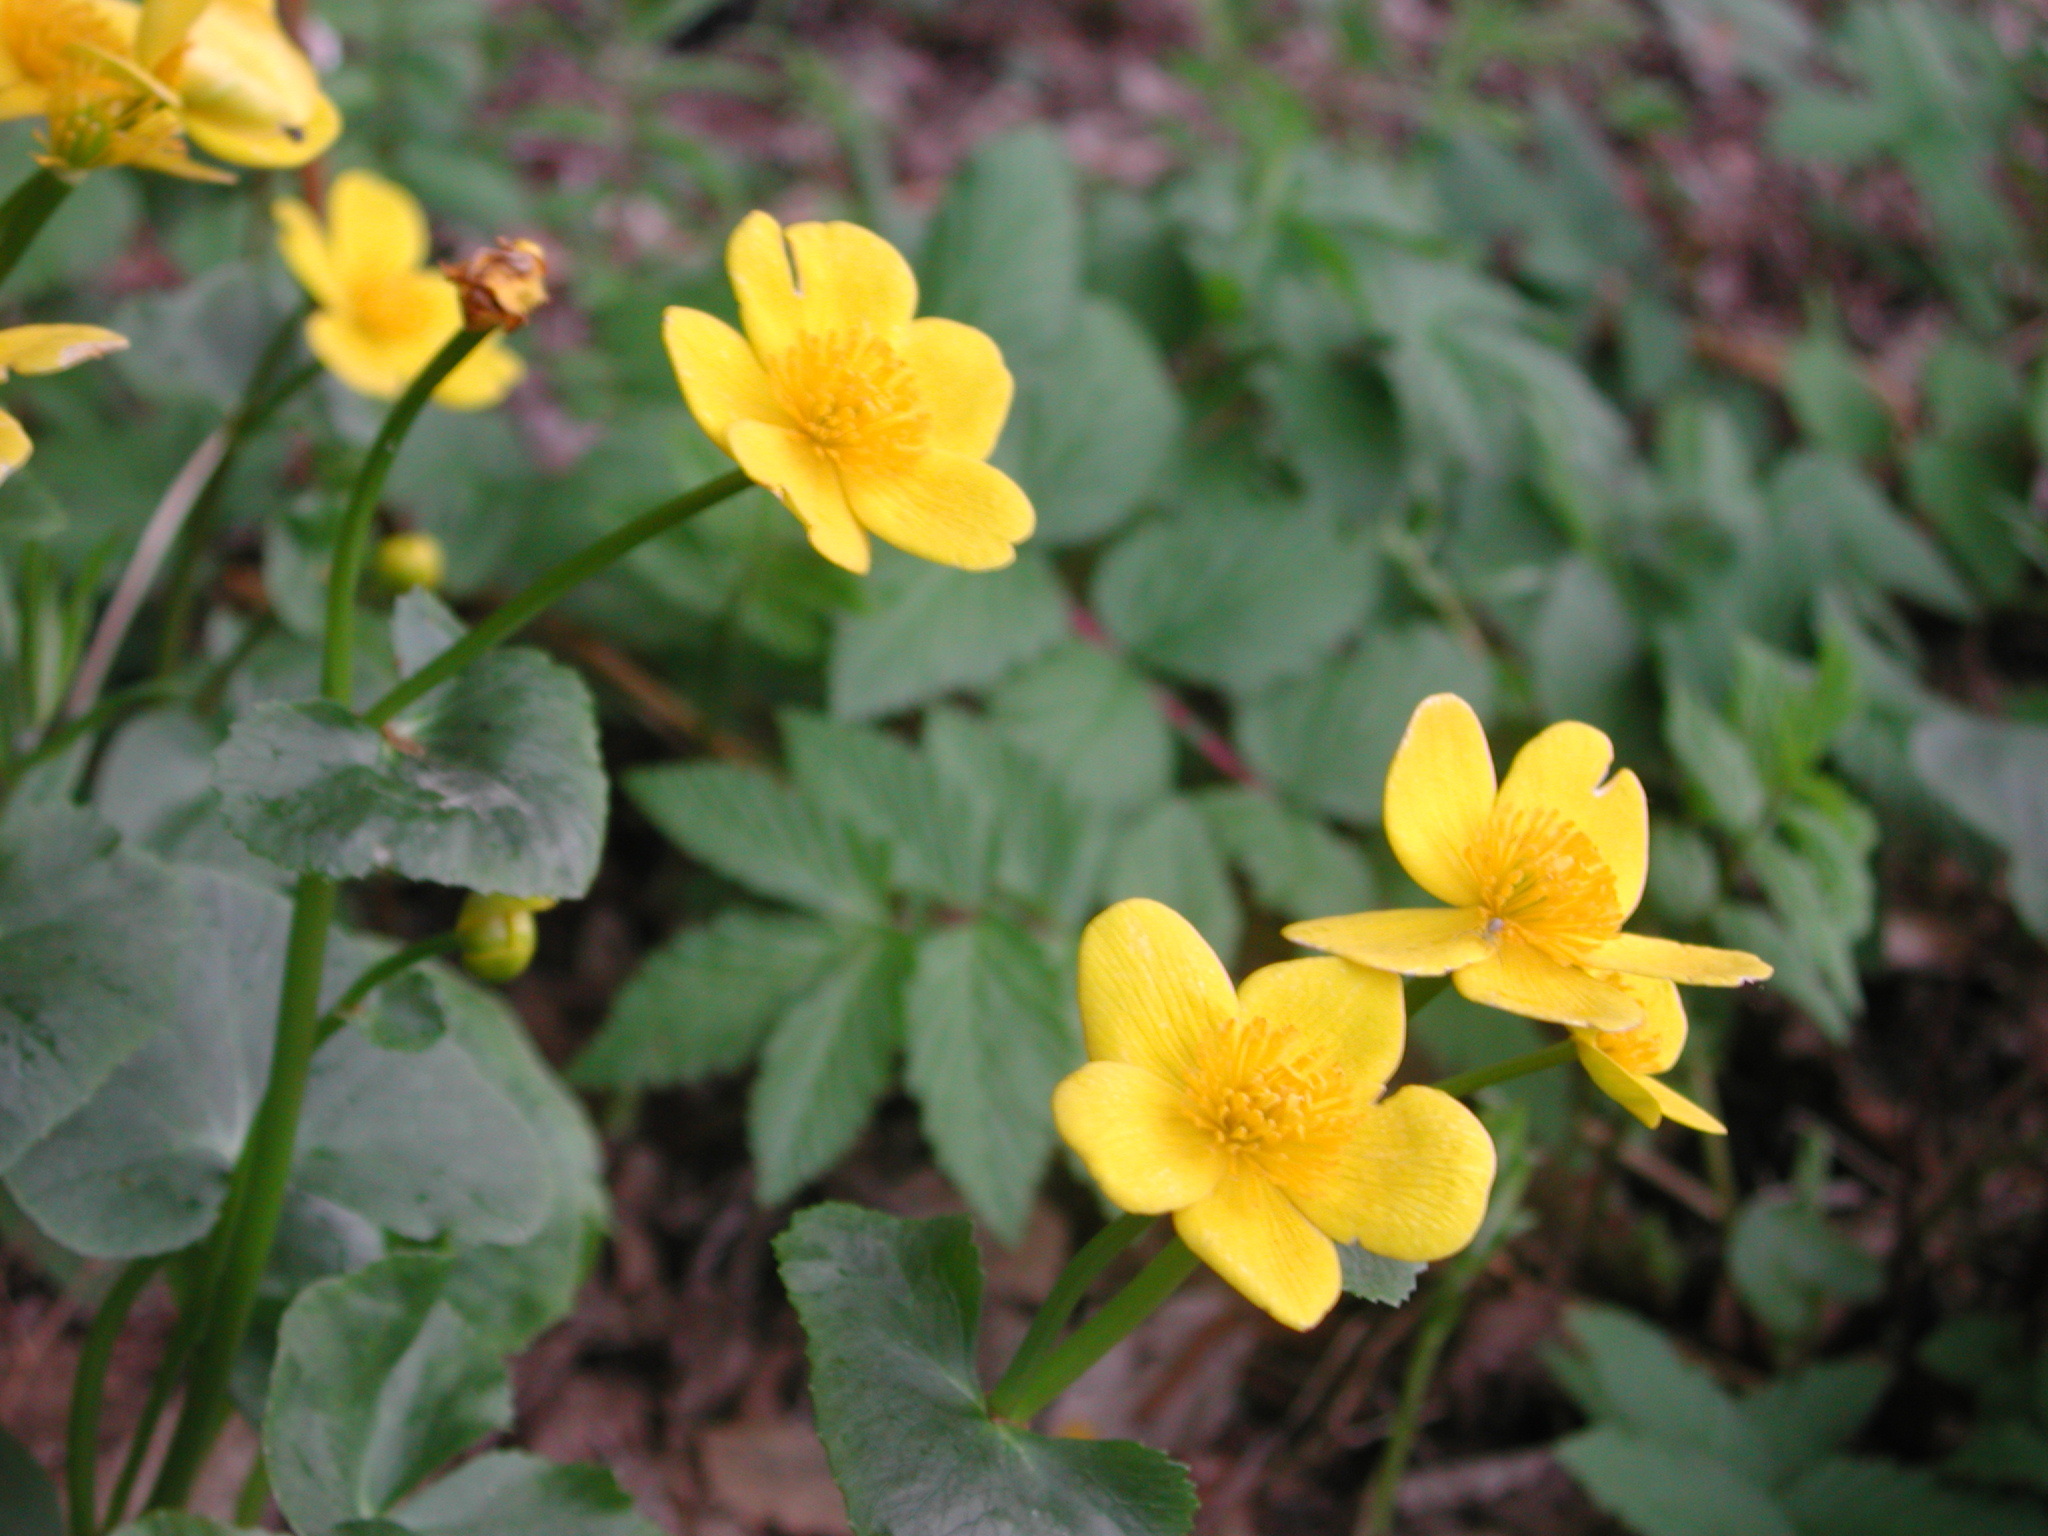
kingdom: Plantae
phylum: Tracheophyta
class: Magnoliopsida
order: Ranunculales
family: Ranunculaceae
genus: Caltha
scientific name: Caltha palustris
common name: Marsh marigold
